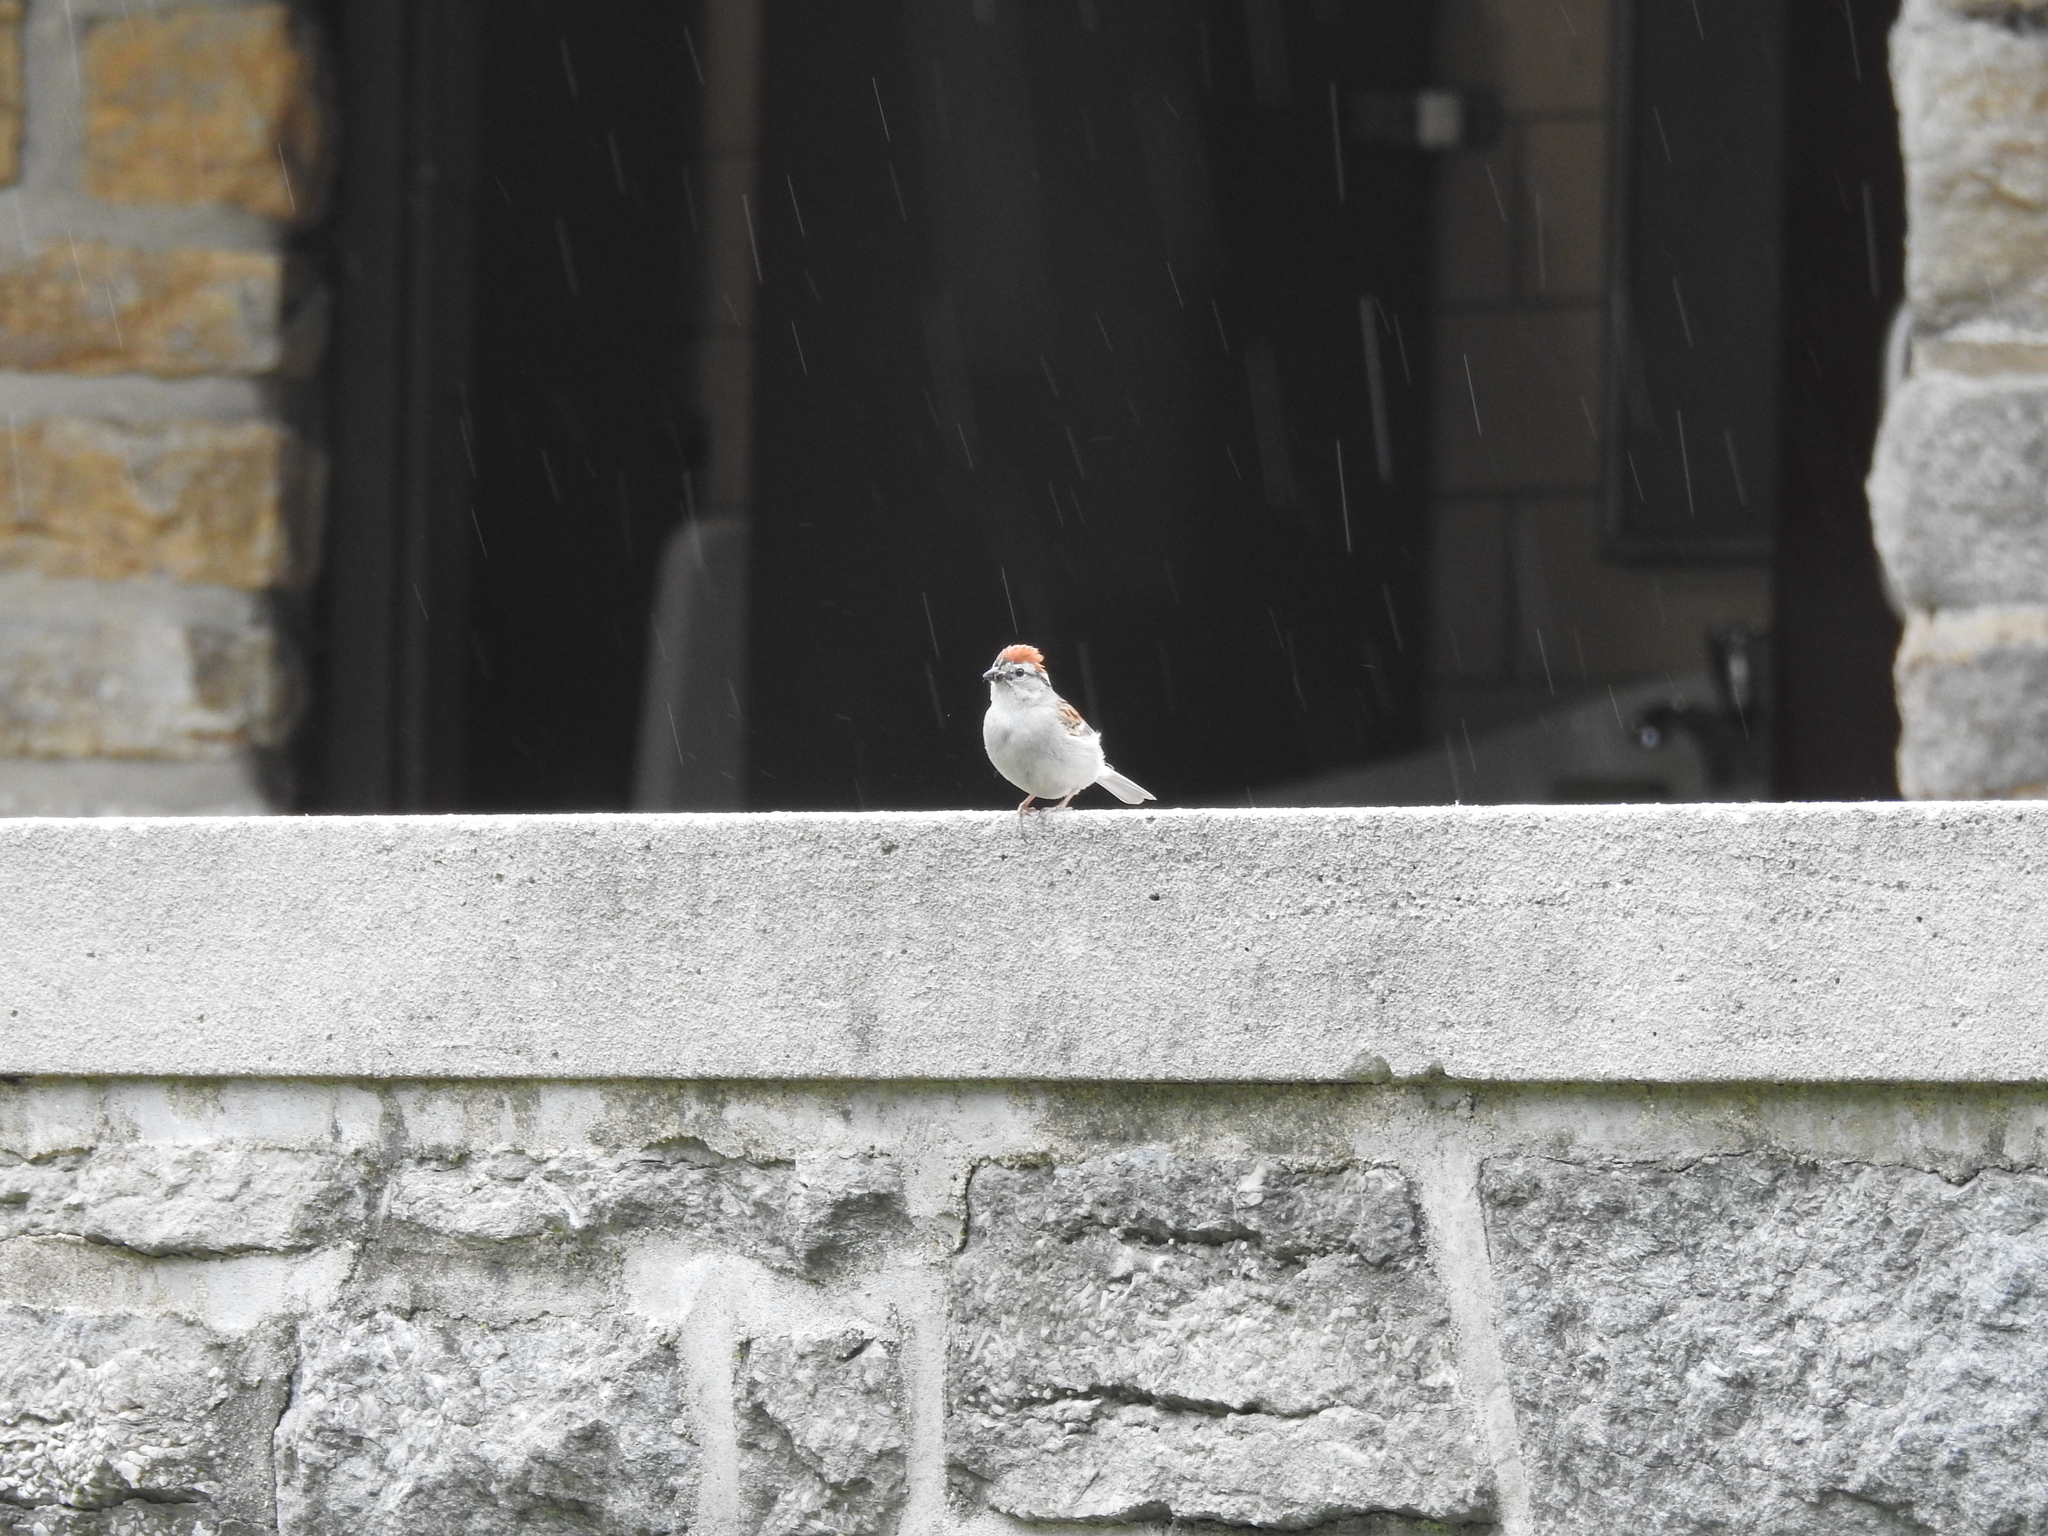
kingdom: Animalia
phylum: Chordata
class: Aves
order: Passeriformes
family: Passerellidae
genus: Spizella
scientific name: Spizella passerina
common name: Chipping sparrow
